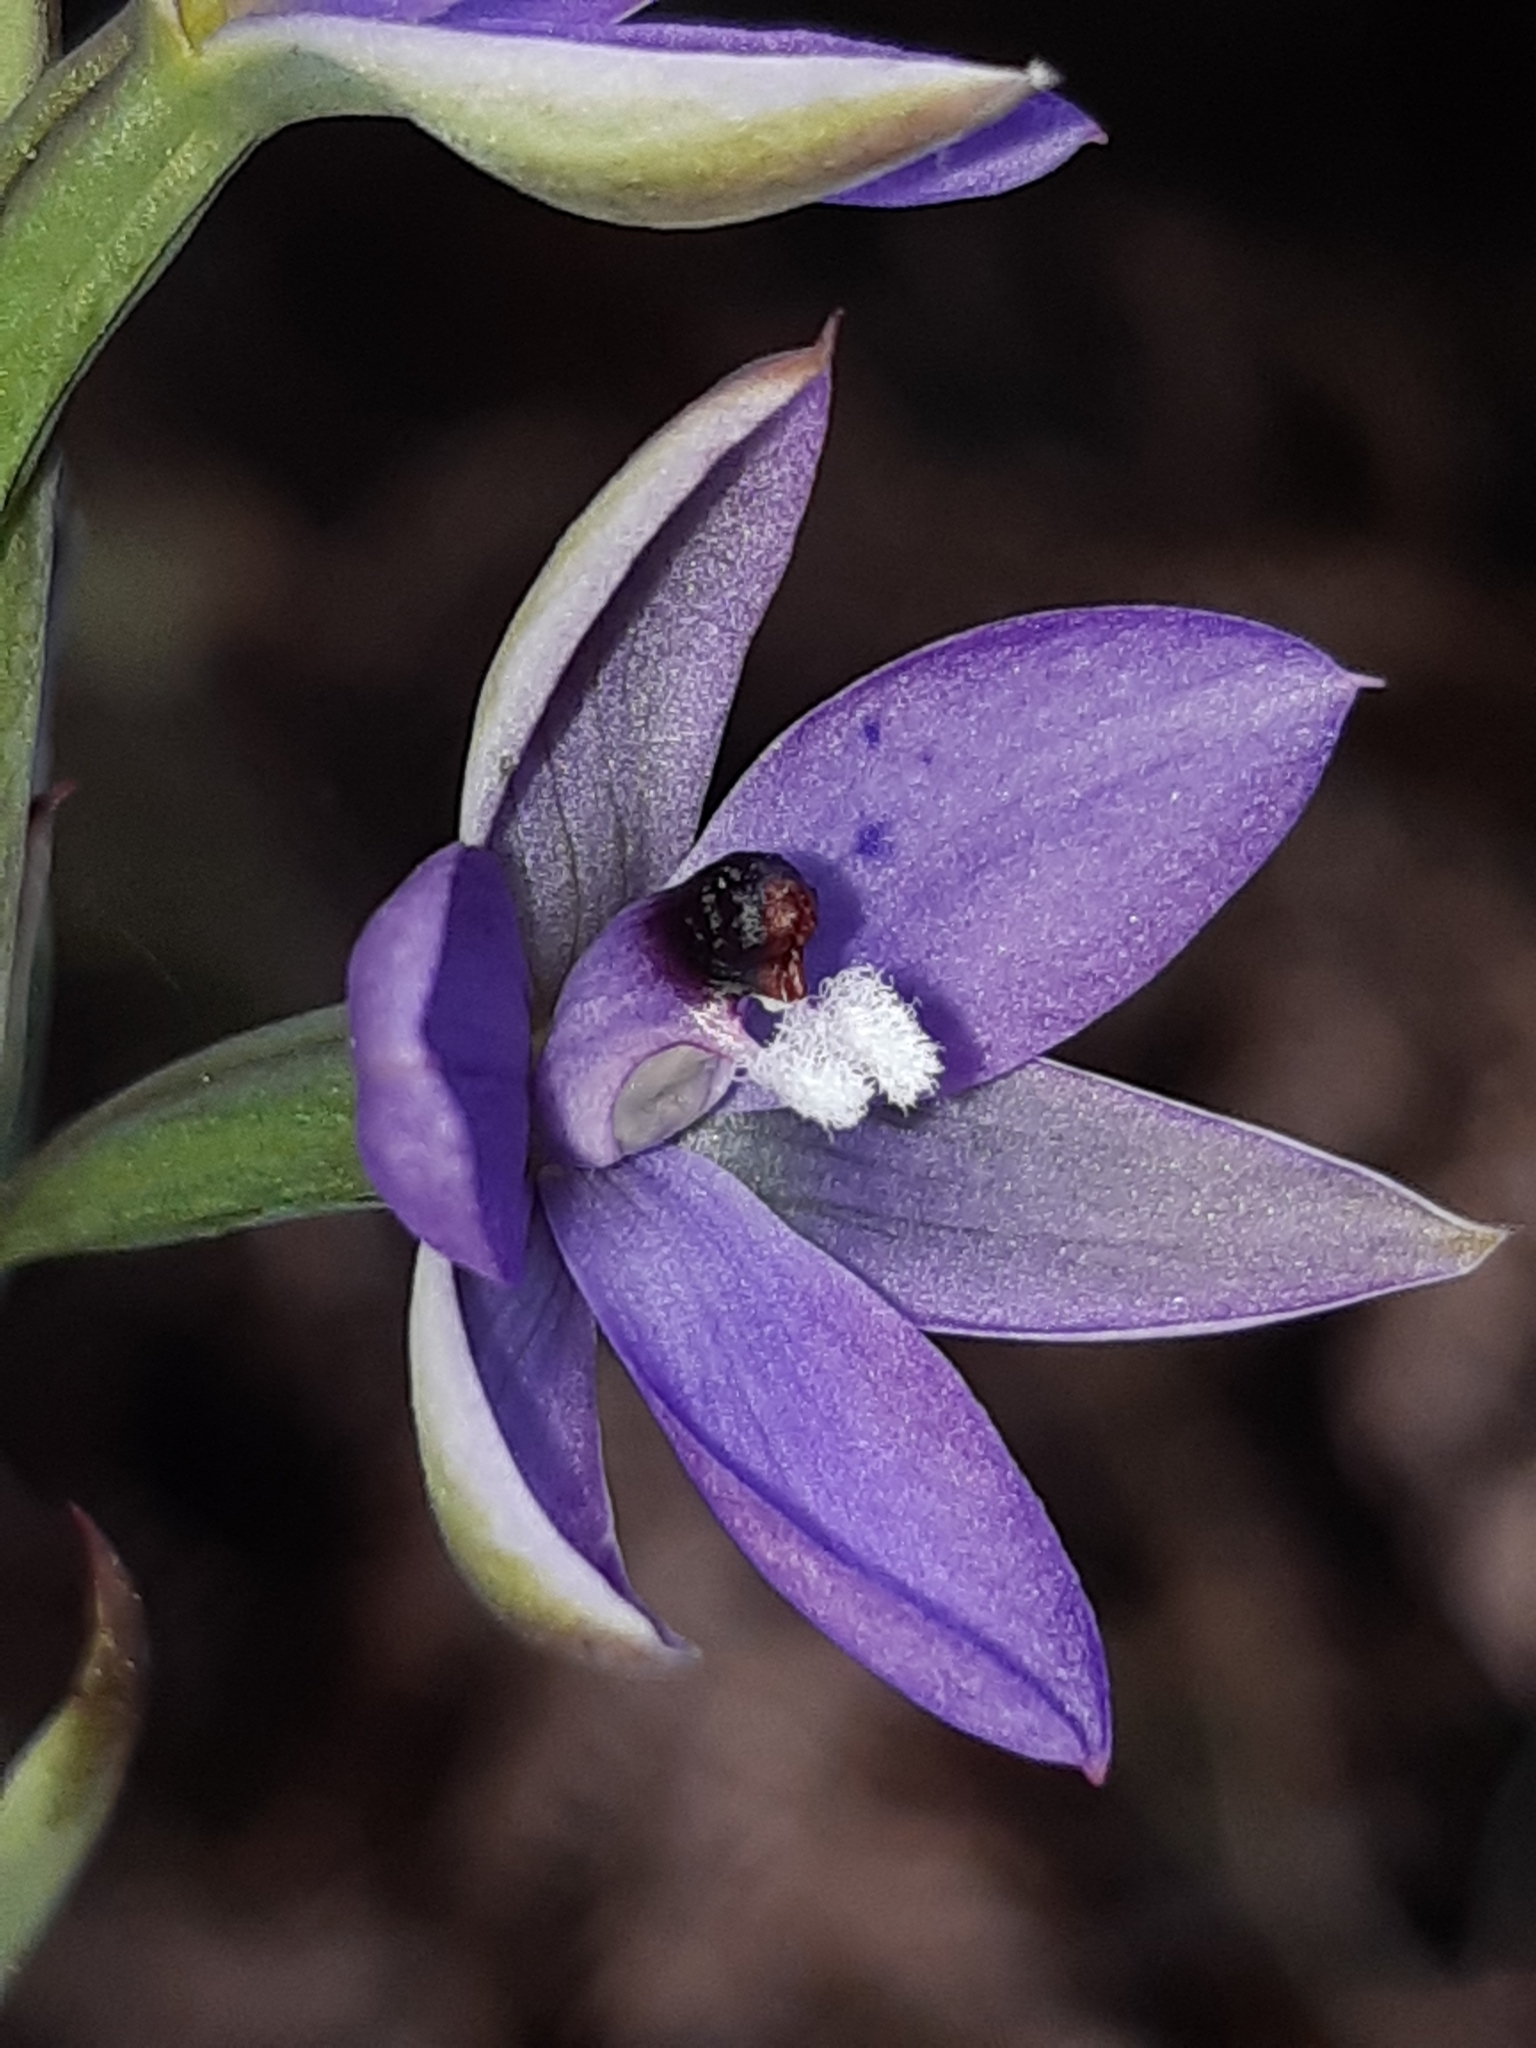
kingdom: Plantae
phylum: Tracheophyta
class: Liliopsida
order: Asparagales
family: Orchidaceae
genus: Thelymitra
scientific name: Thelymitra nervosa
